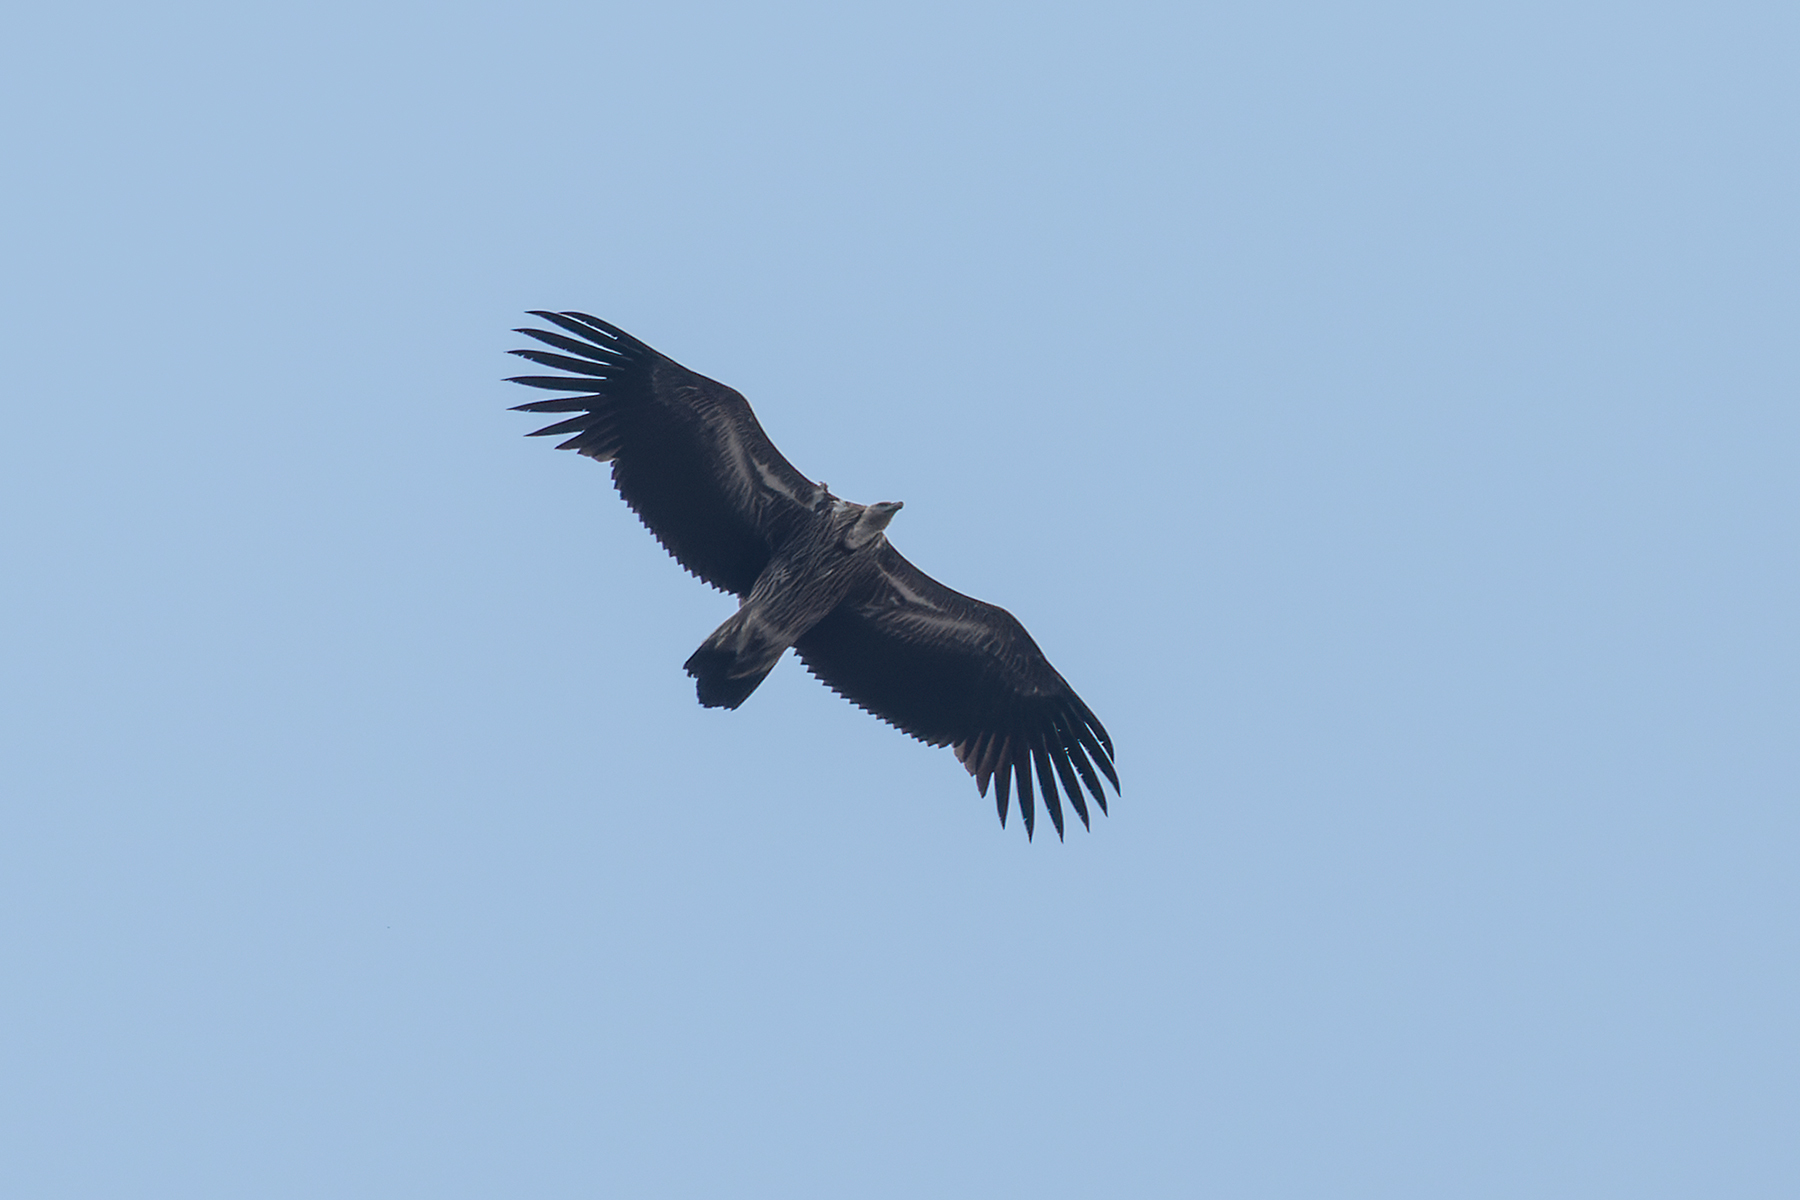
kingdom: Animalia
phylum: Chordata
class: Aves
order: Accipitriformes
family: Accipitridae
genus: Gyps
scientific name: Gyps himalayensis
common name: Himalayan griffon
